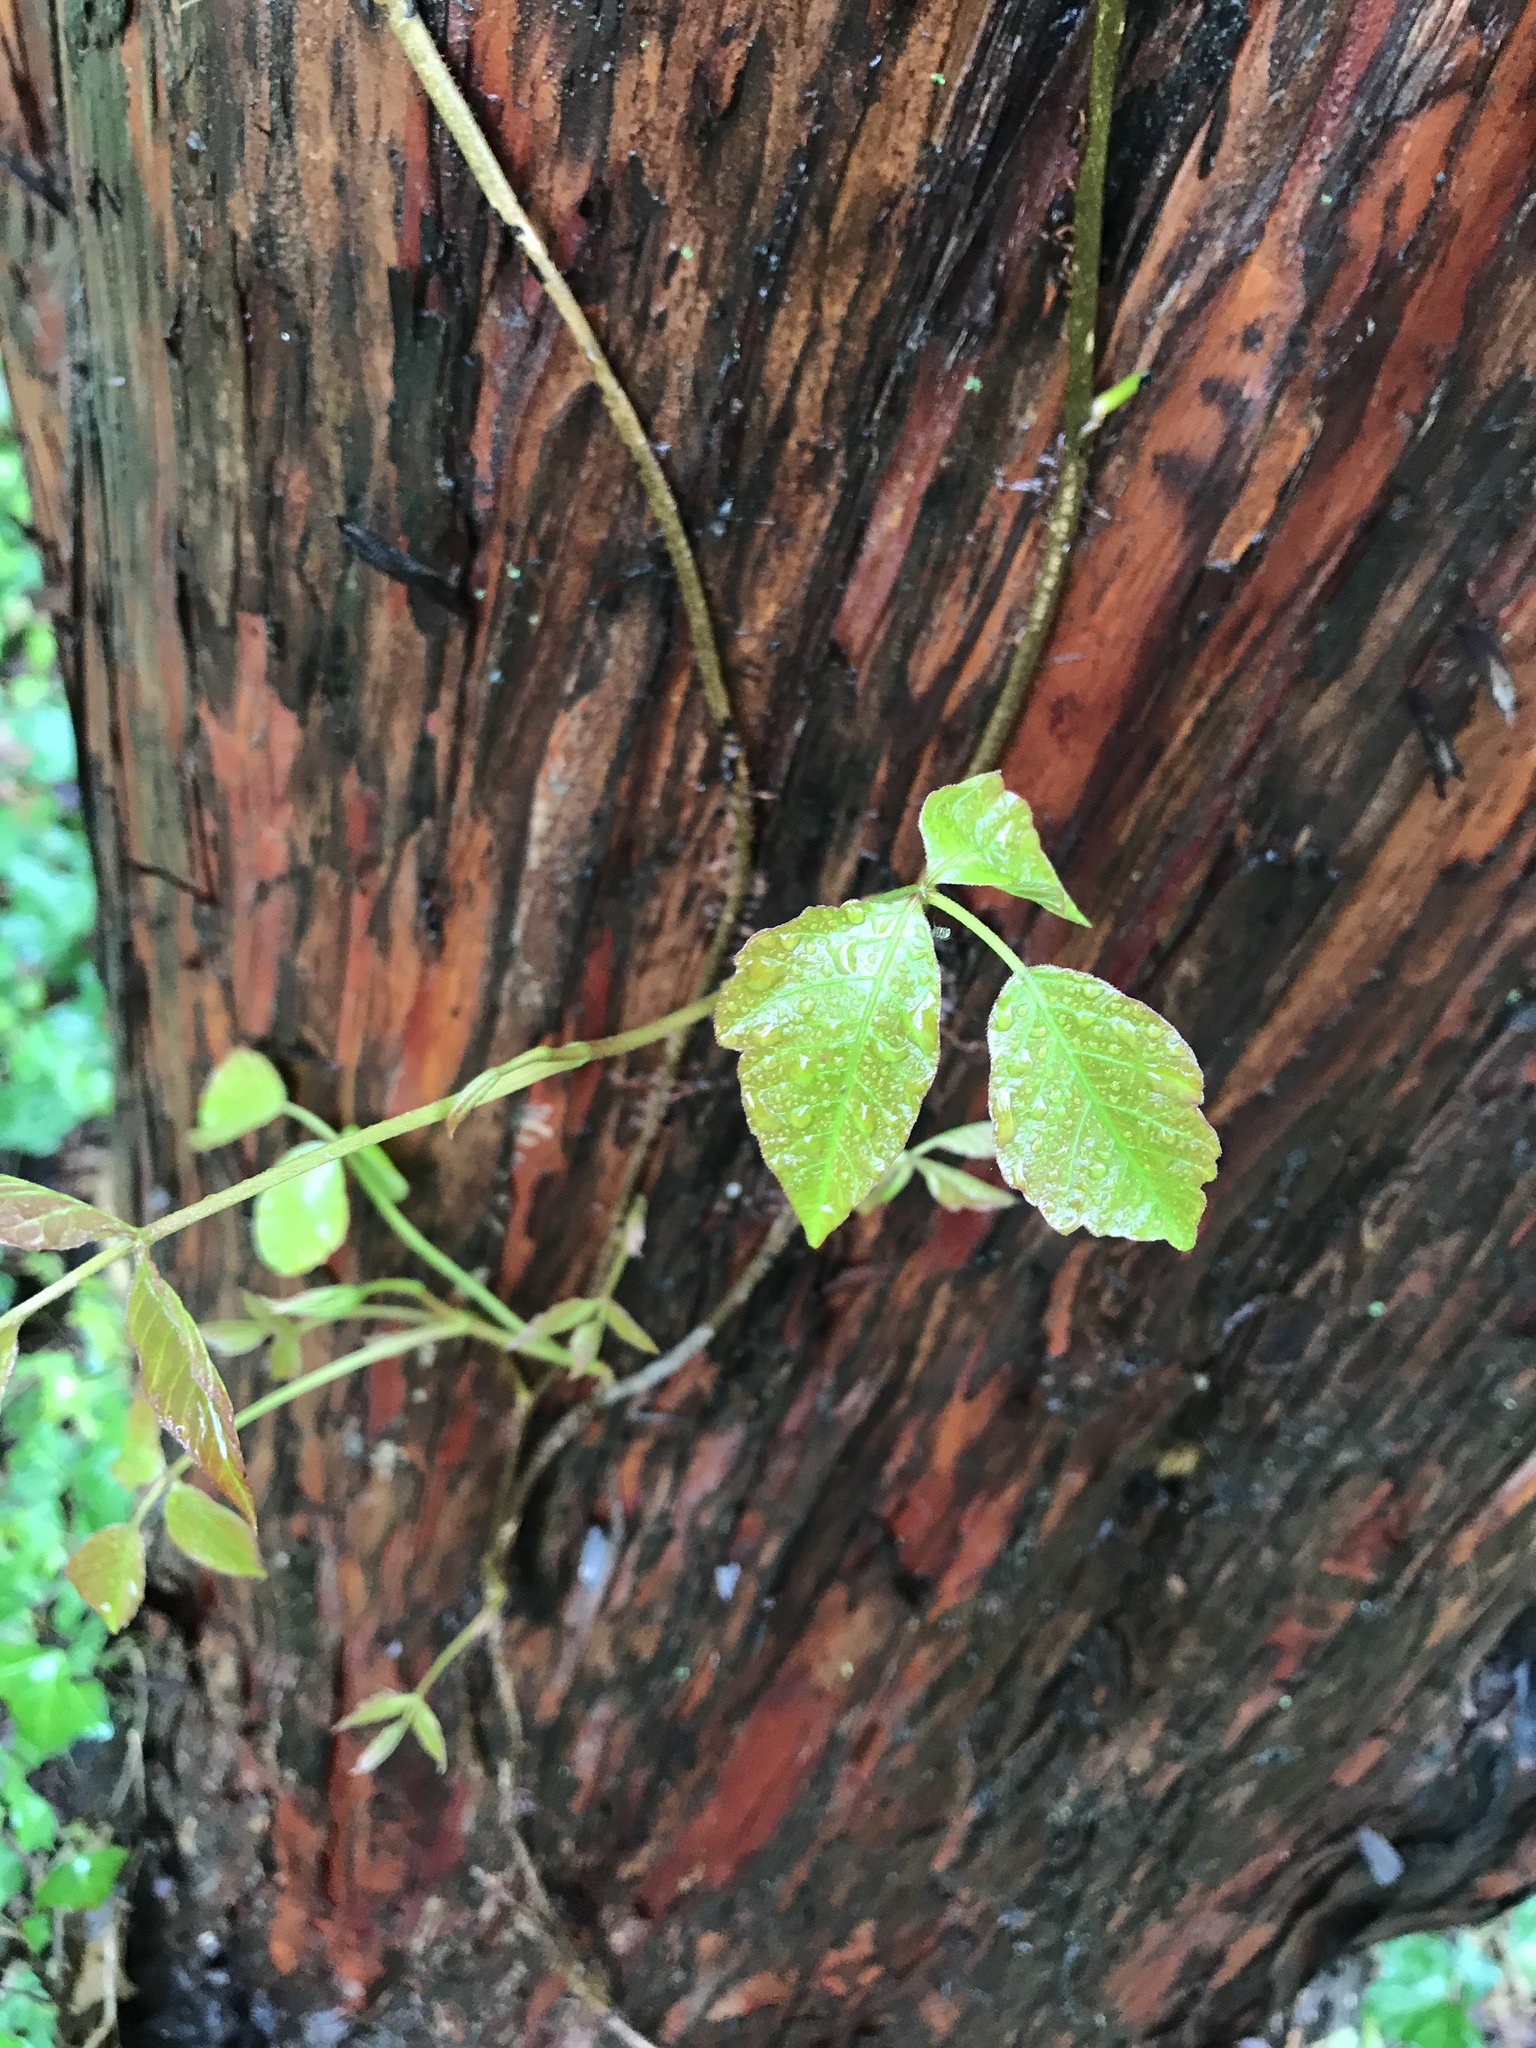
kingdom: Plantae
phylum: Tracheophyta
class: Magnoliopsida
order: Sapindales
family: Anacardiaceae
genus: Toxicodendron
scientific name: Toxicodendron radicans
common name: Poison ivy
